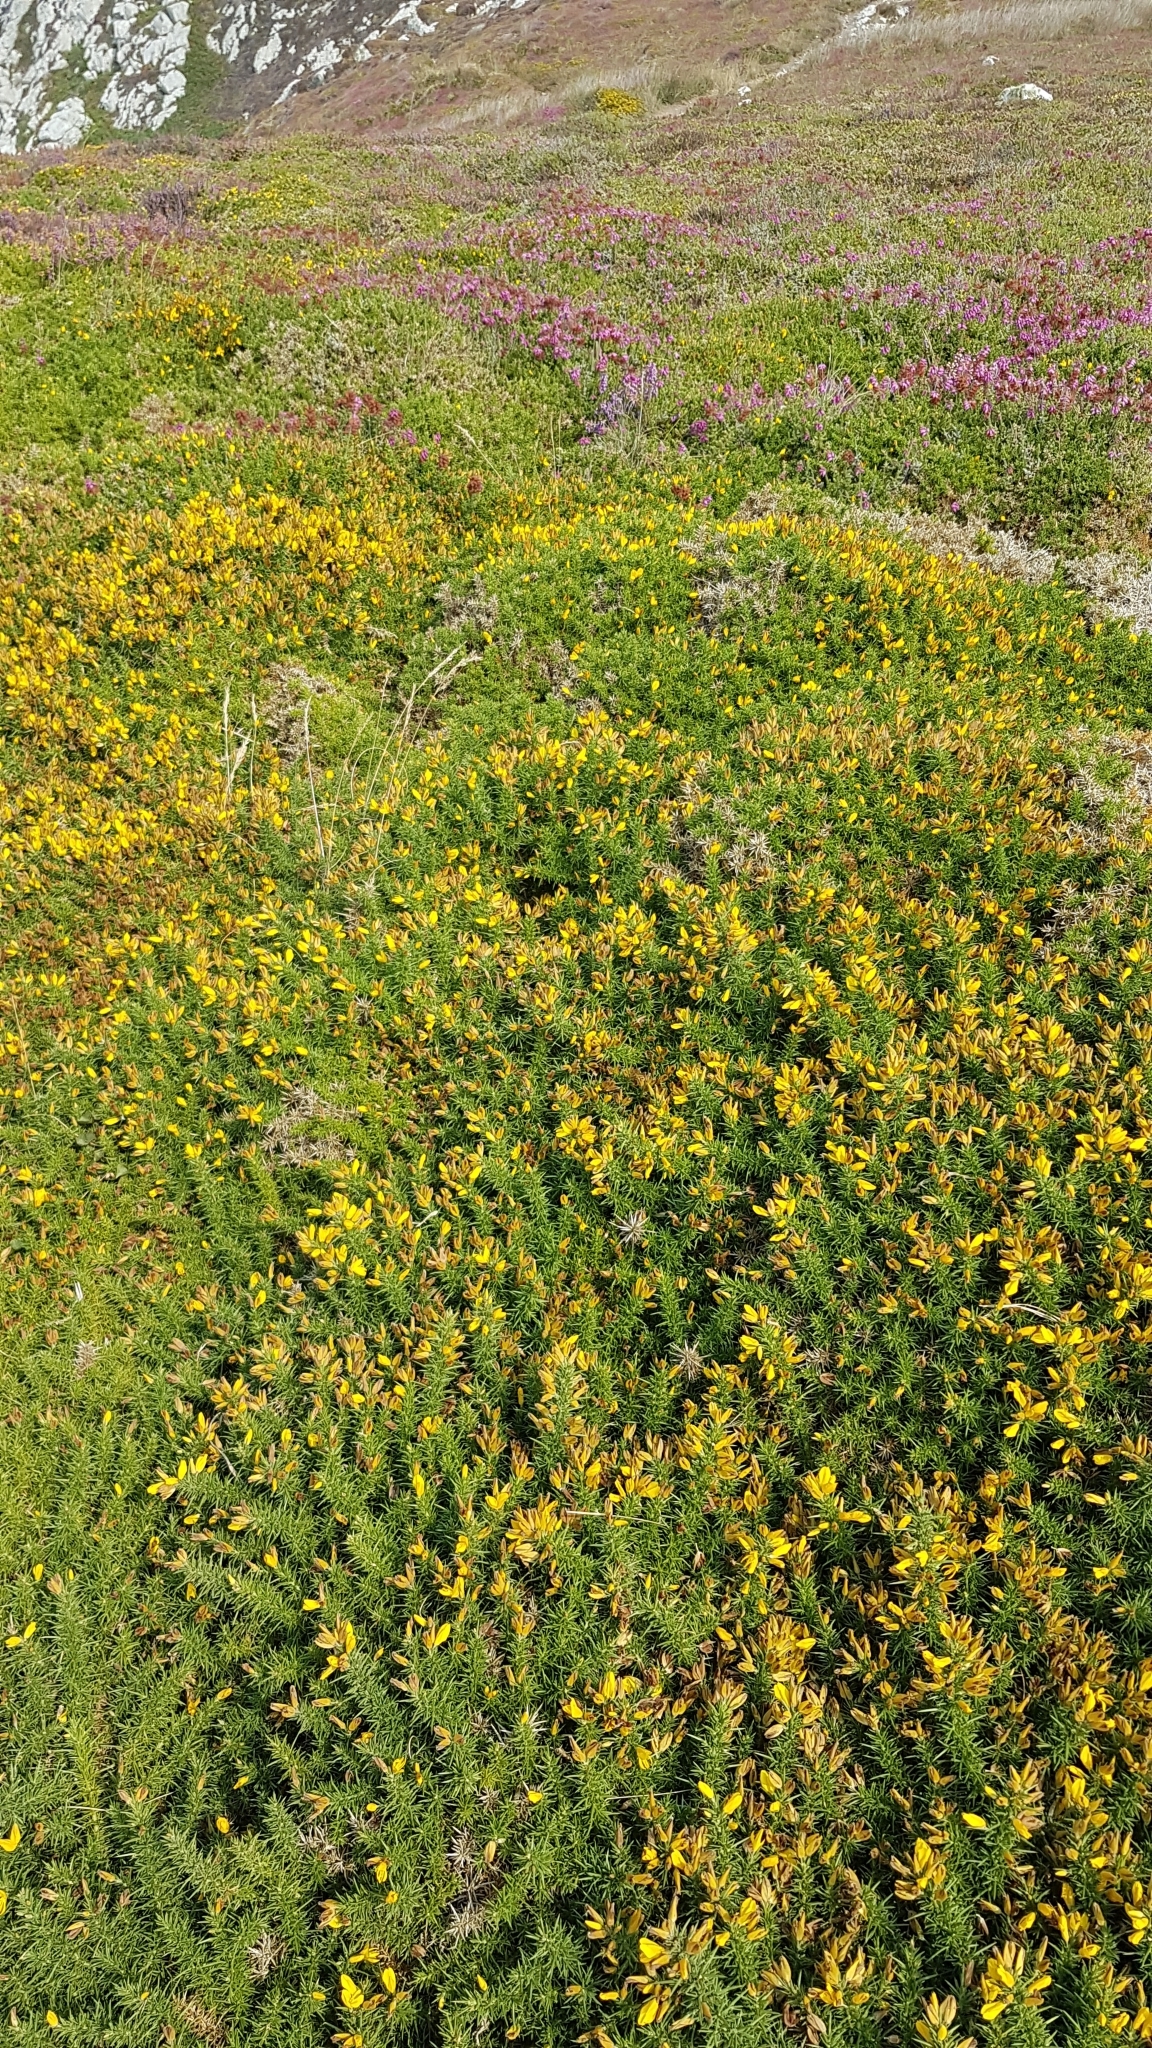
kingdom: Plantae
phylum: Tracheophyta
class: Magnoliopsida
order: Fabales
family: Fabaceae
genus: Ulex
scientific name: Ulex gallii
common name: Western gorse
